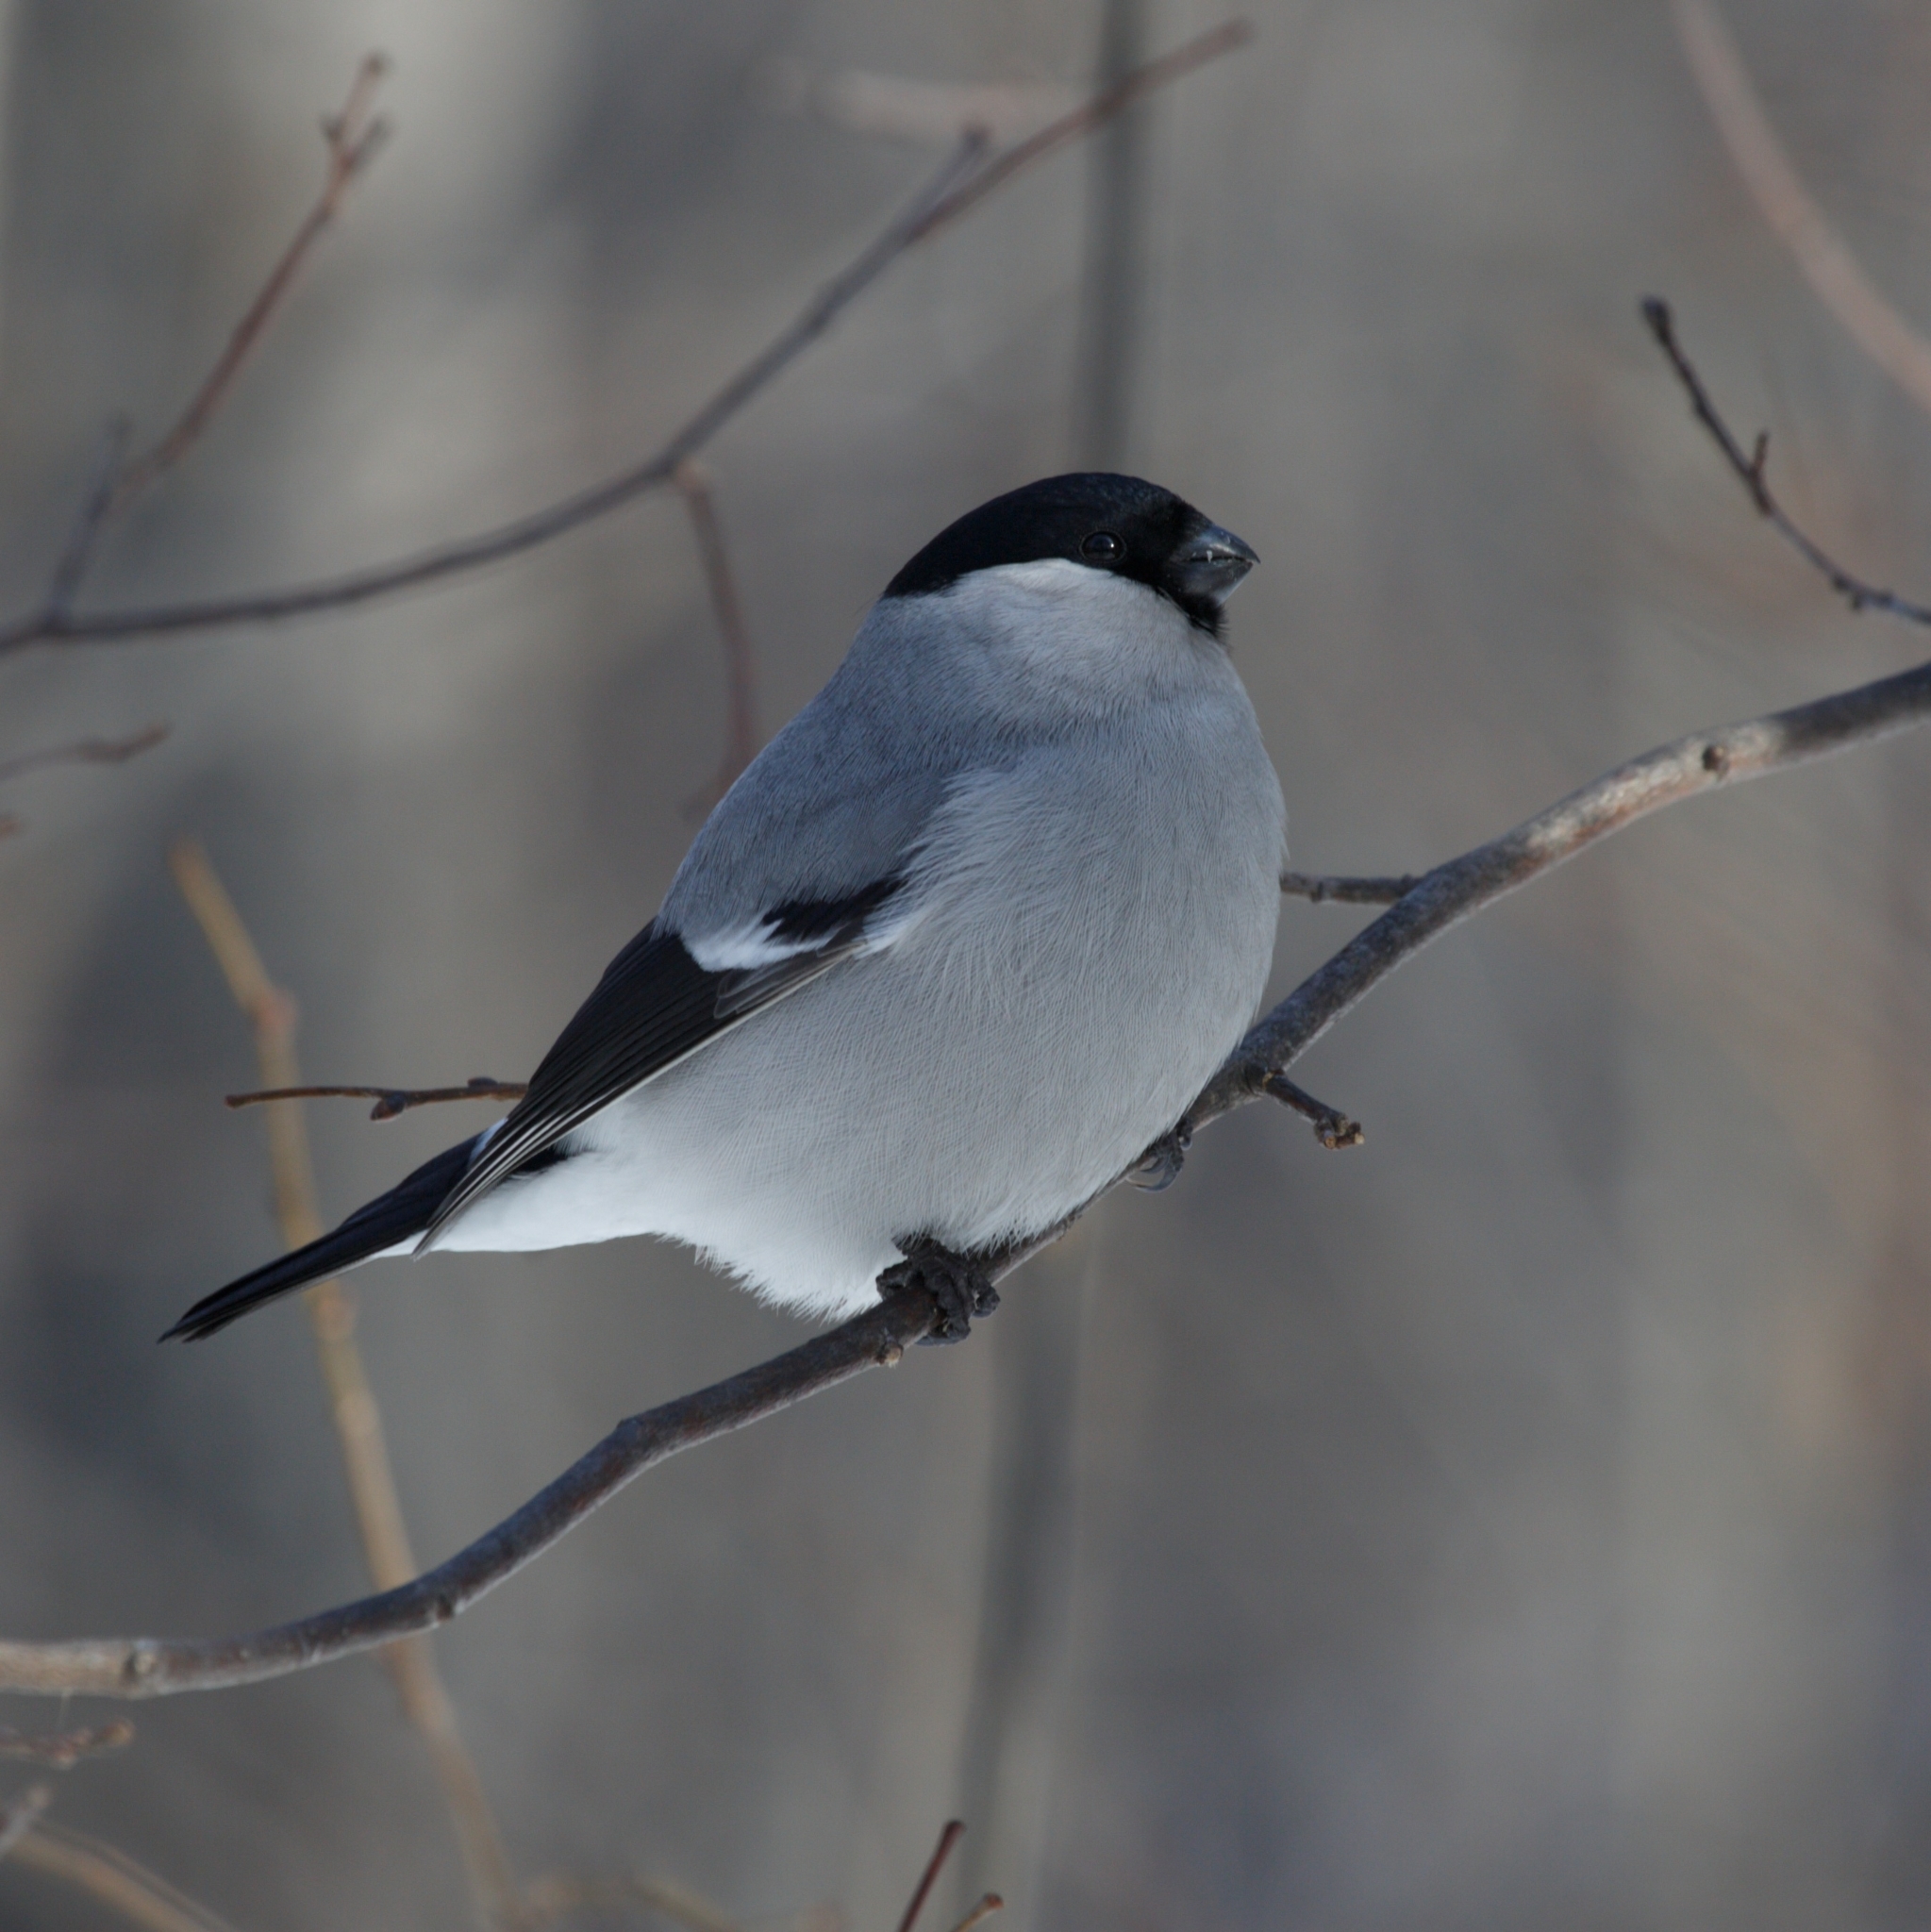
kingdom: Animalia
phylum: Chordata
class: Aves
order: Passeriformes
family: Fringillidae
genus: Pyrrhula
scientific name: Pyrrhula pyrrhula
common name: Eurasian bullfinch
